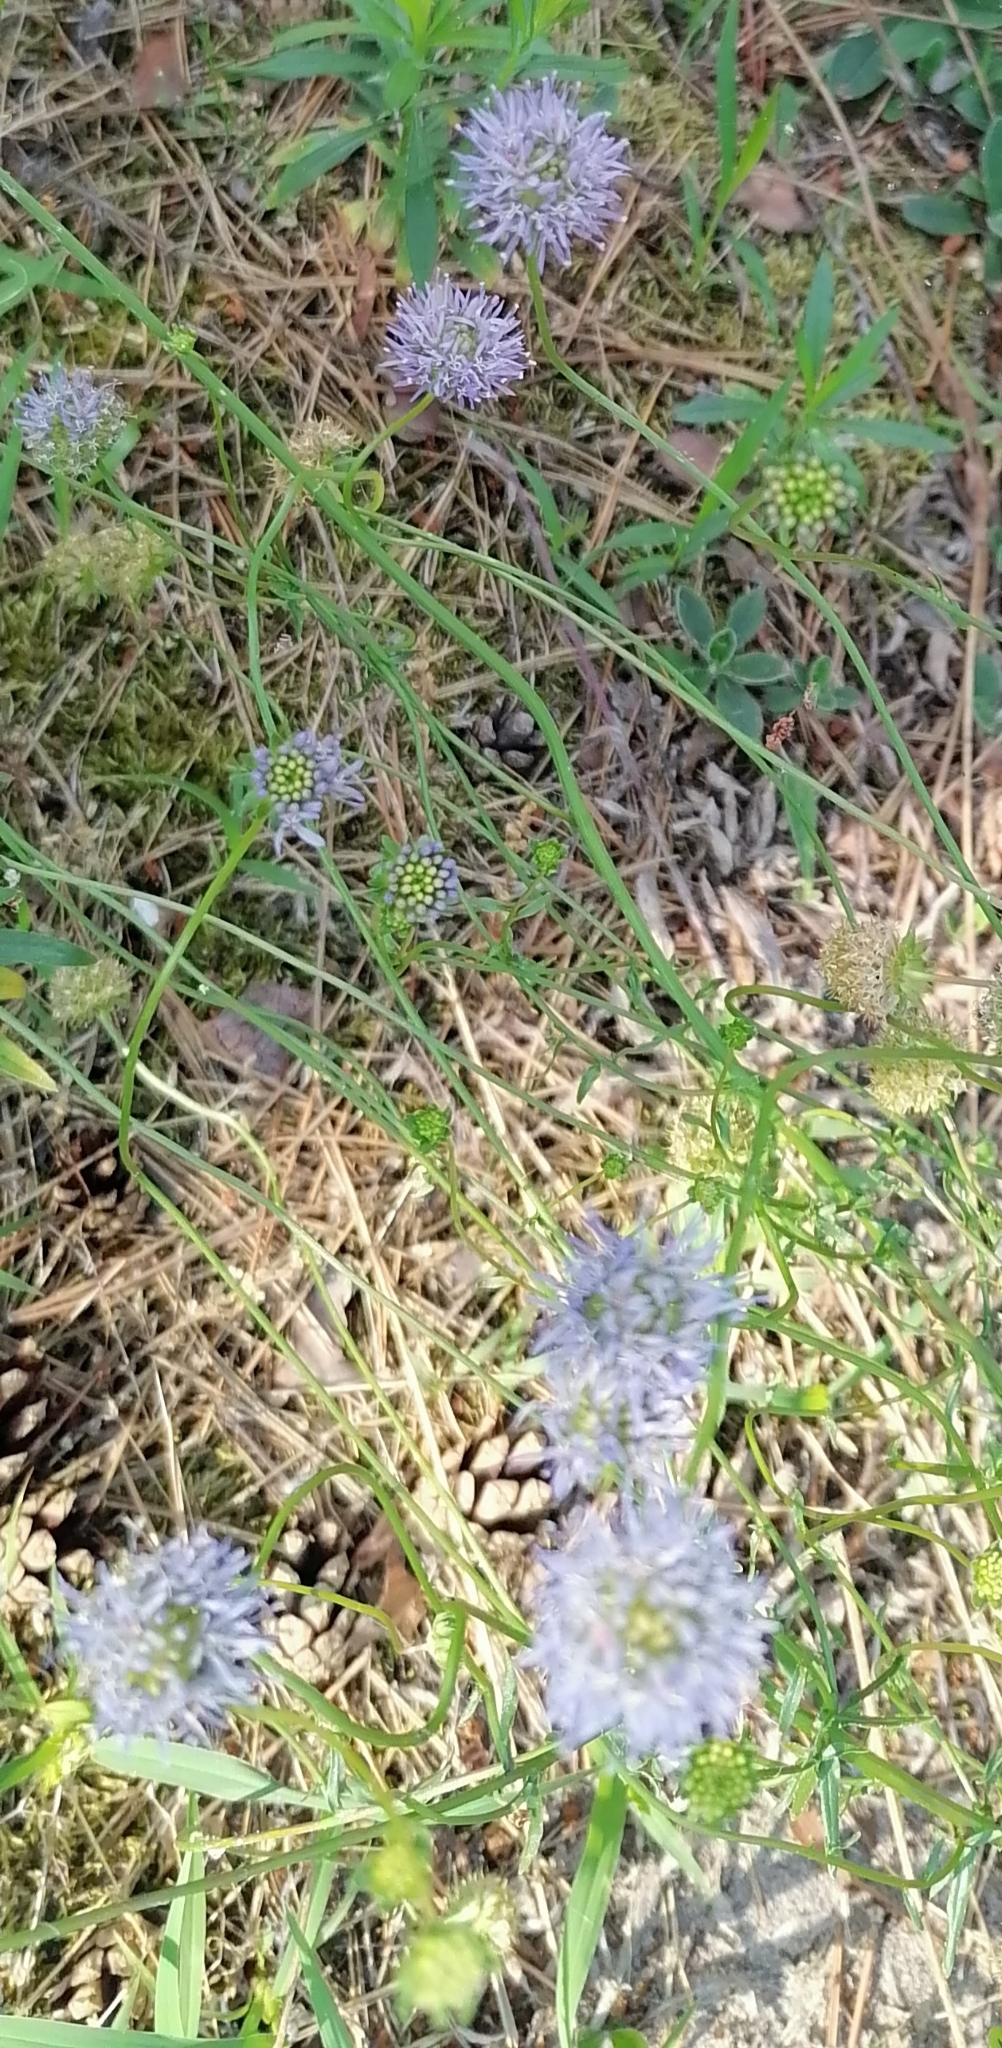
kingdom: Plantae
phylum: Tracheophyta
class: Magnoliopsida
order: Asterales
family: Campanulaceae
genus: Jasione
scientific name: Jasione montana
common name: Sheep's-bit
